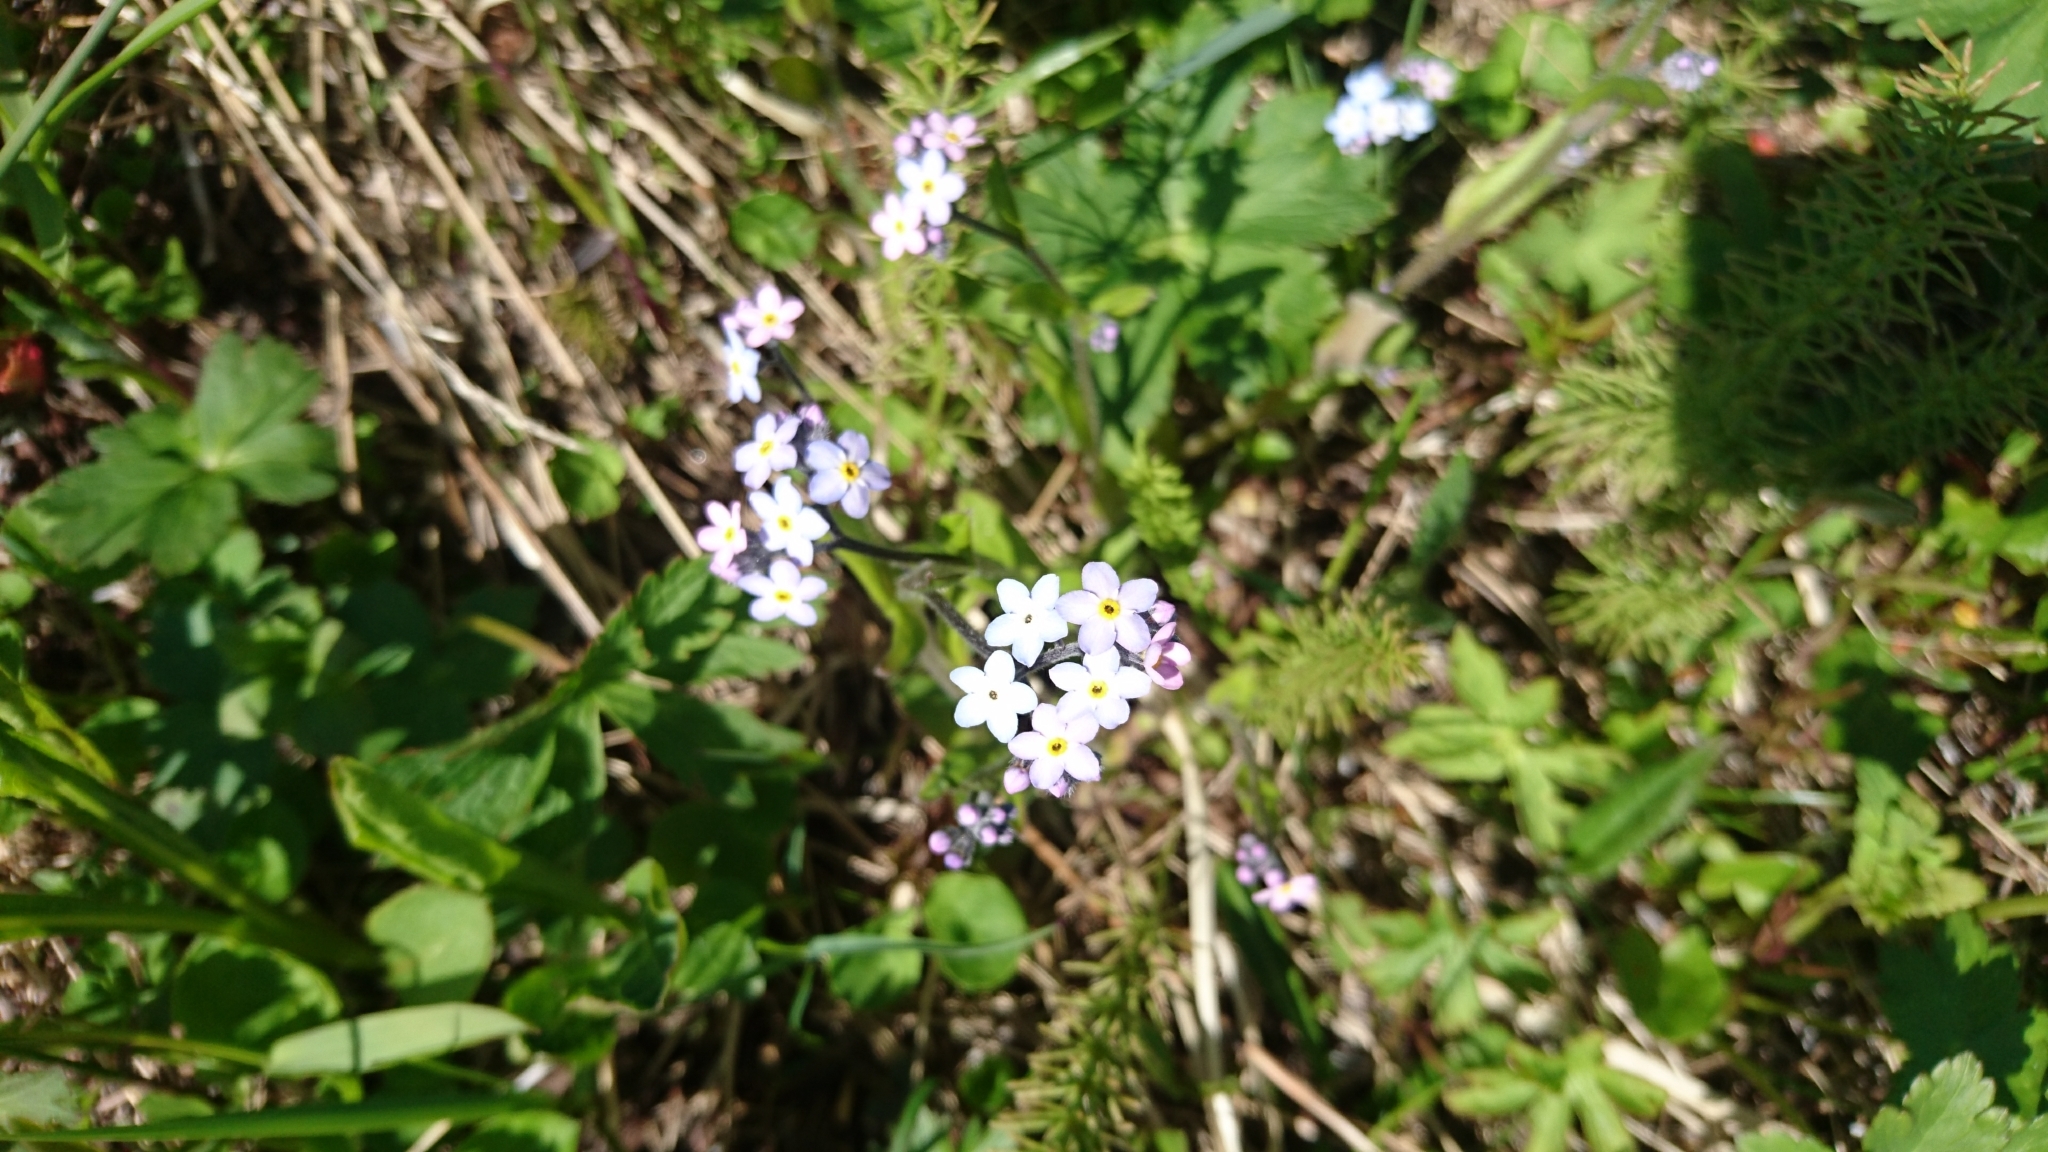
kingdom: Plantae
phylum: Tracheophyta
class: Magnoliopsida
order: Boraginales
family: Boraginaceae
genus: Myosotis
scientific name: Myosotis decumbens
